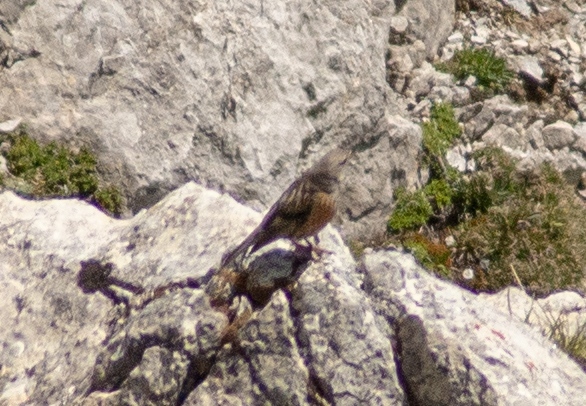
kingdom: Animalia
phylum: Chordata
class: Aves
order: Passeriformes
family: Prunellidae
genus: Prunella
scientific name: Prunella collaris
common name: Alpine accentor
